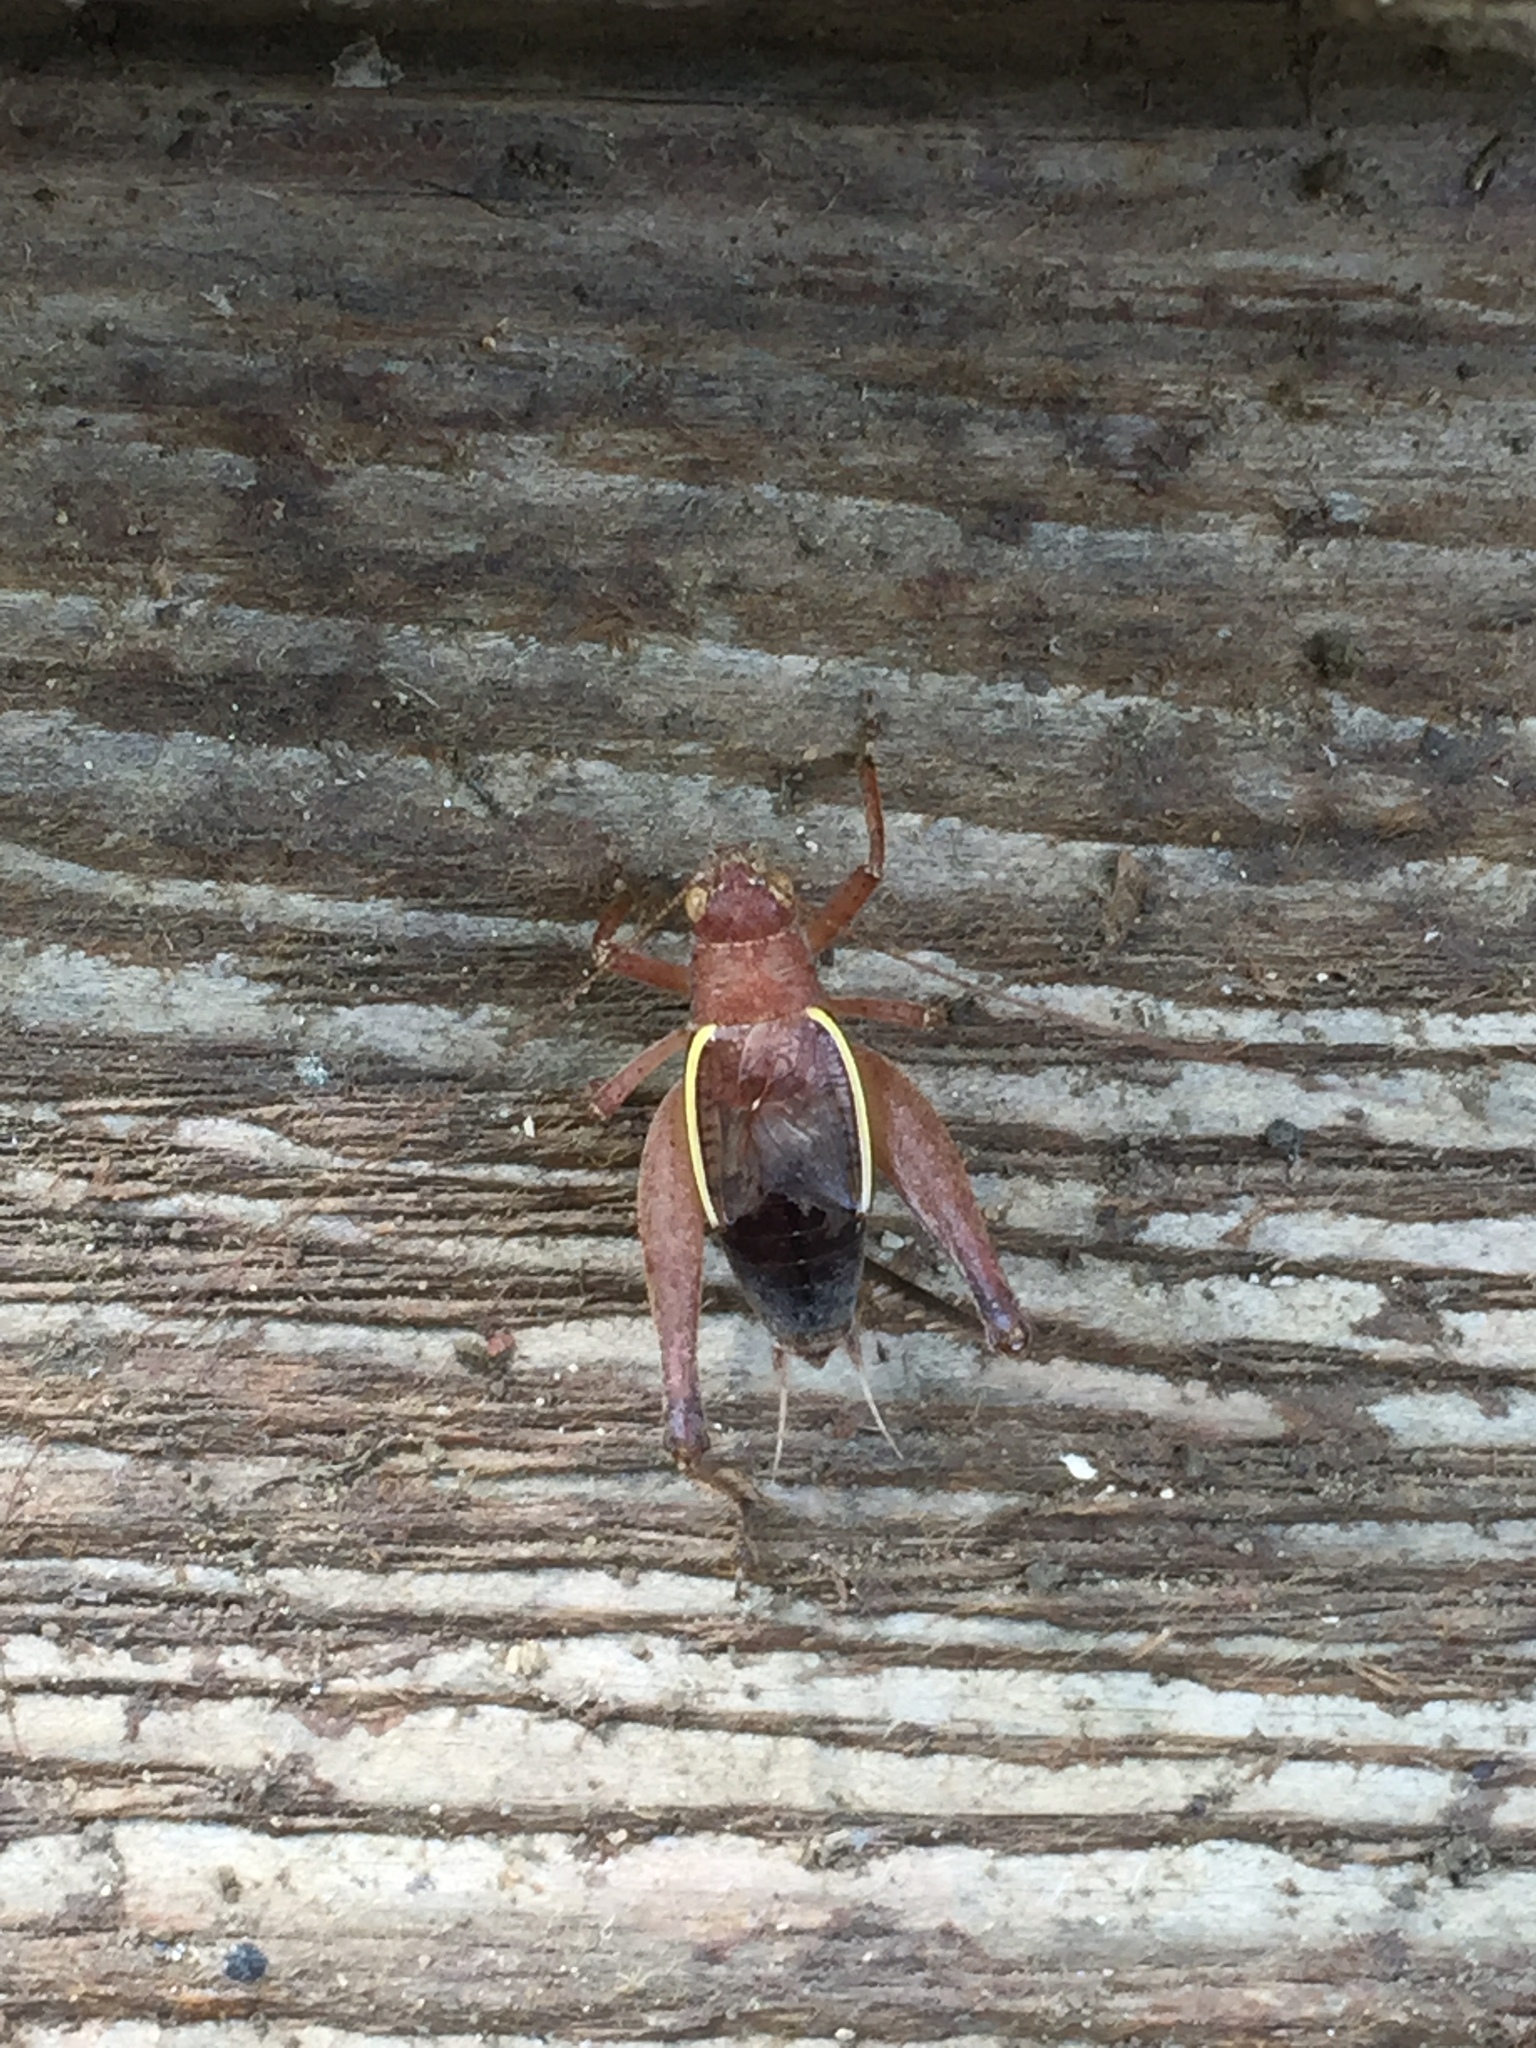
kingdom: Animalia
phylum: Arthropoda
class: Insecta
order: Orthoptera
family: Gryllidae
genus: Hapithus
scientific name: Hapithus agitator
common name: Restless bush cricket
